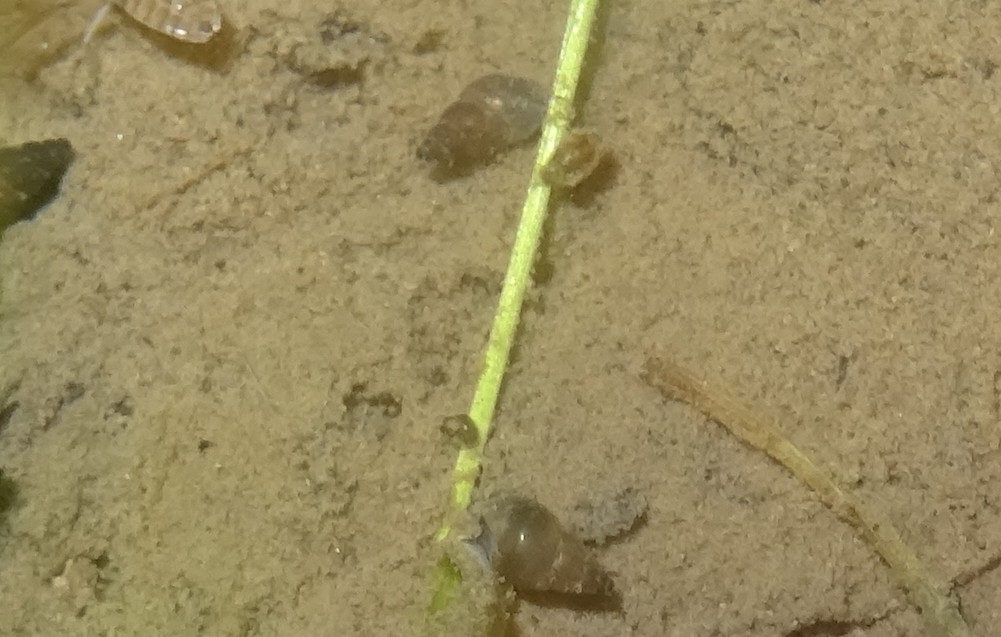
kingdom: Animalia
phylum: Mollusca
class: Gastropoda
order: Littorinimorpha
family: Tateidae
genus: Potamopyrgus
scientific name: Potamopyrgus antipodarum
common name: Jenkins' spire snail
